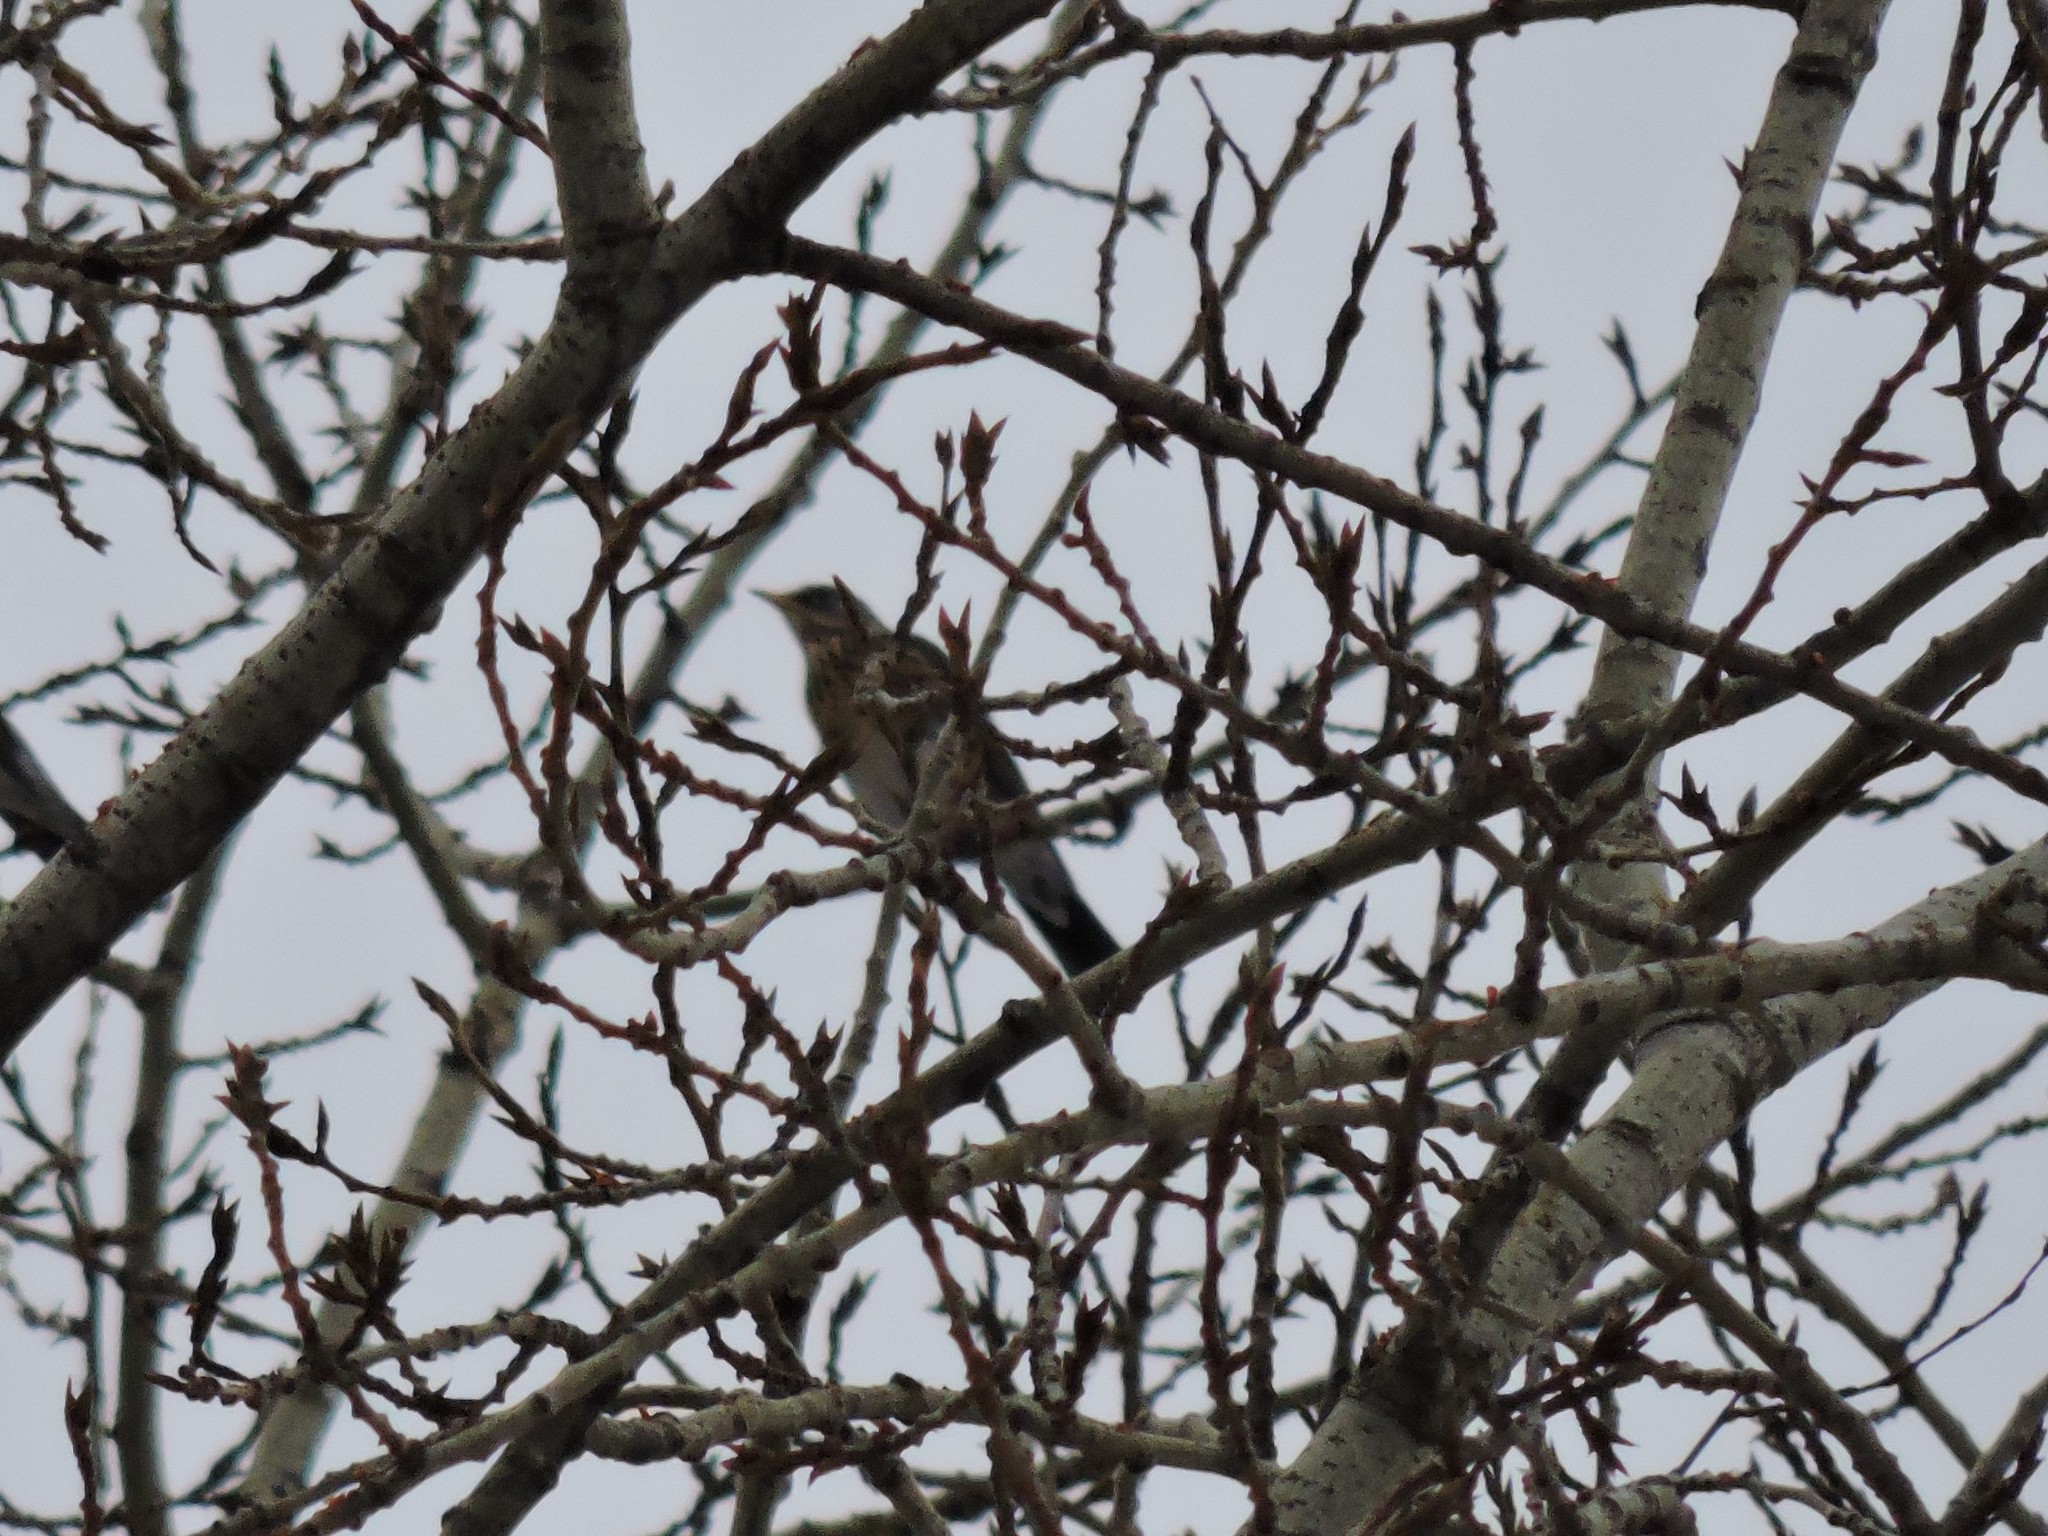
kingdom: Animalia
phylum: Chordata
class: Aves
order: Passeriformes
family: Turdidae
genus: Turdus
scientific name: Turdus pilaris
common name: Fieldfare
